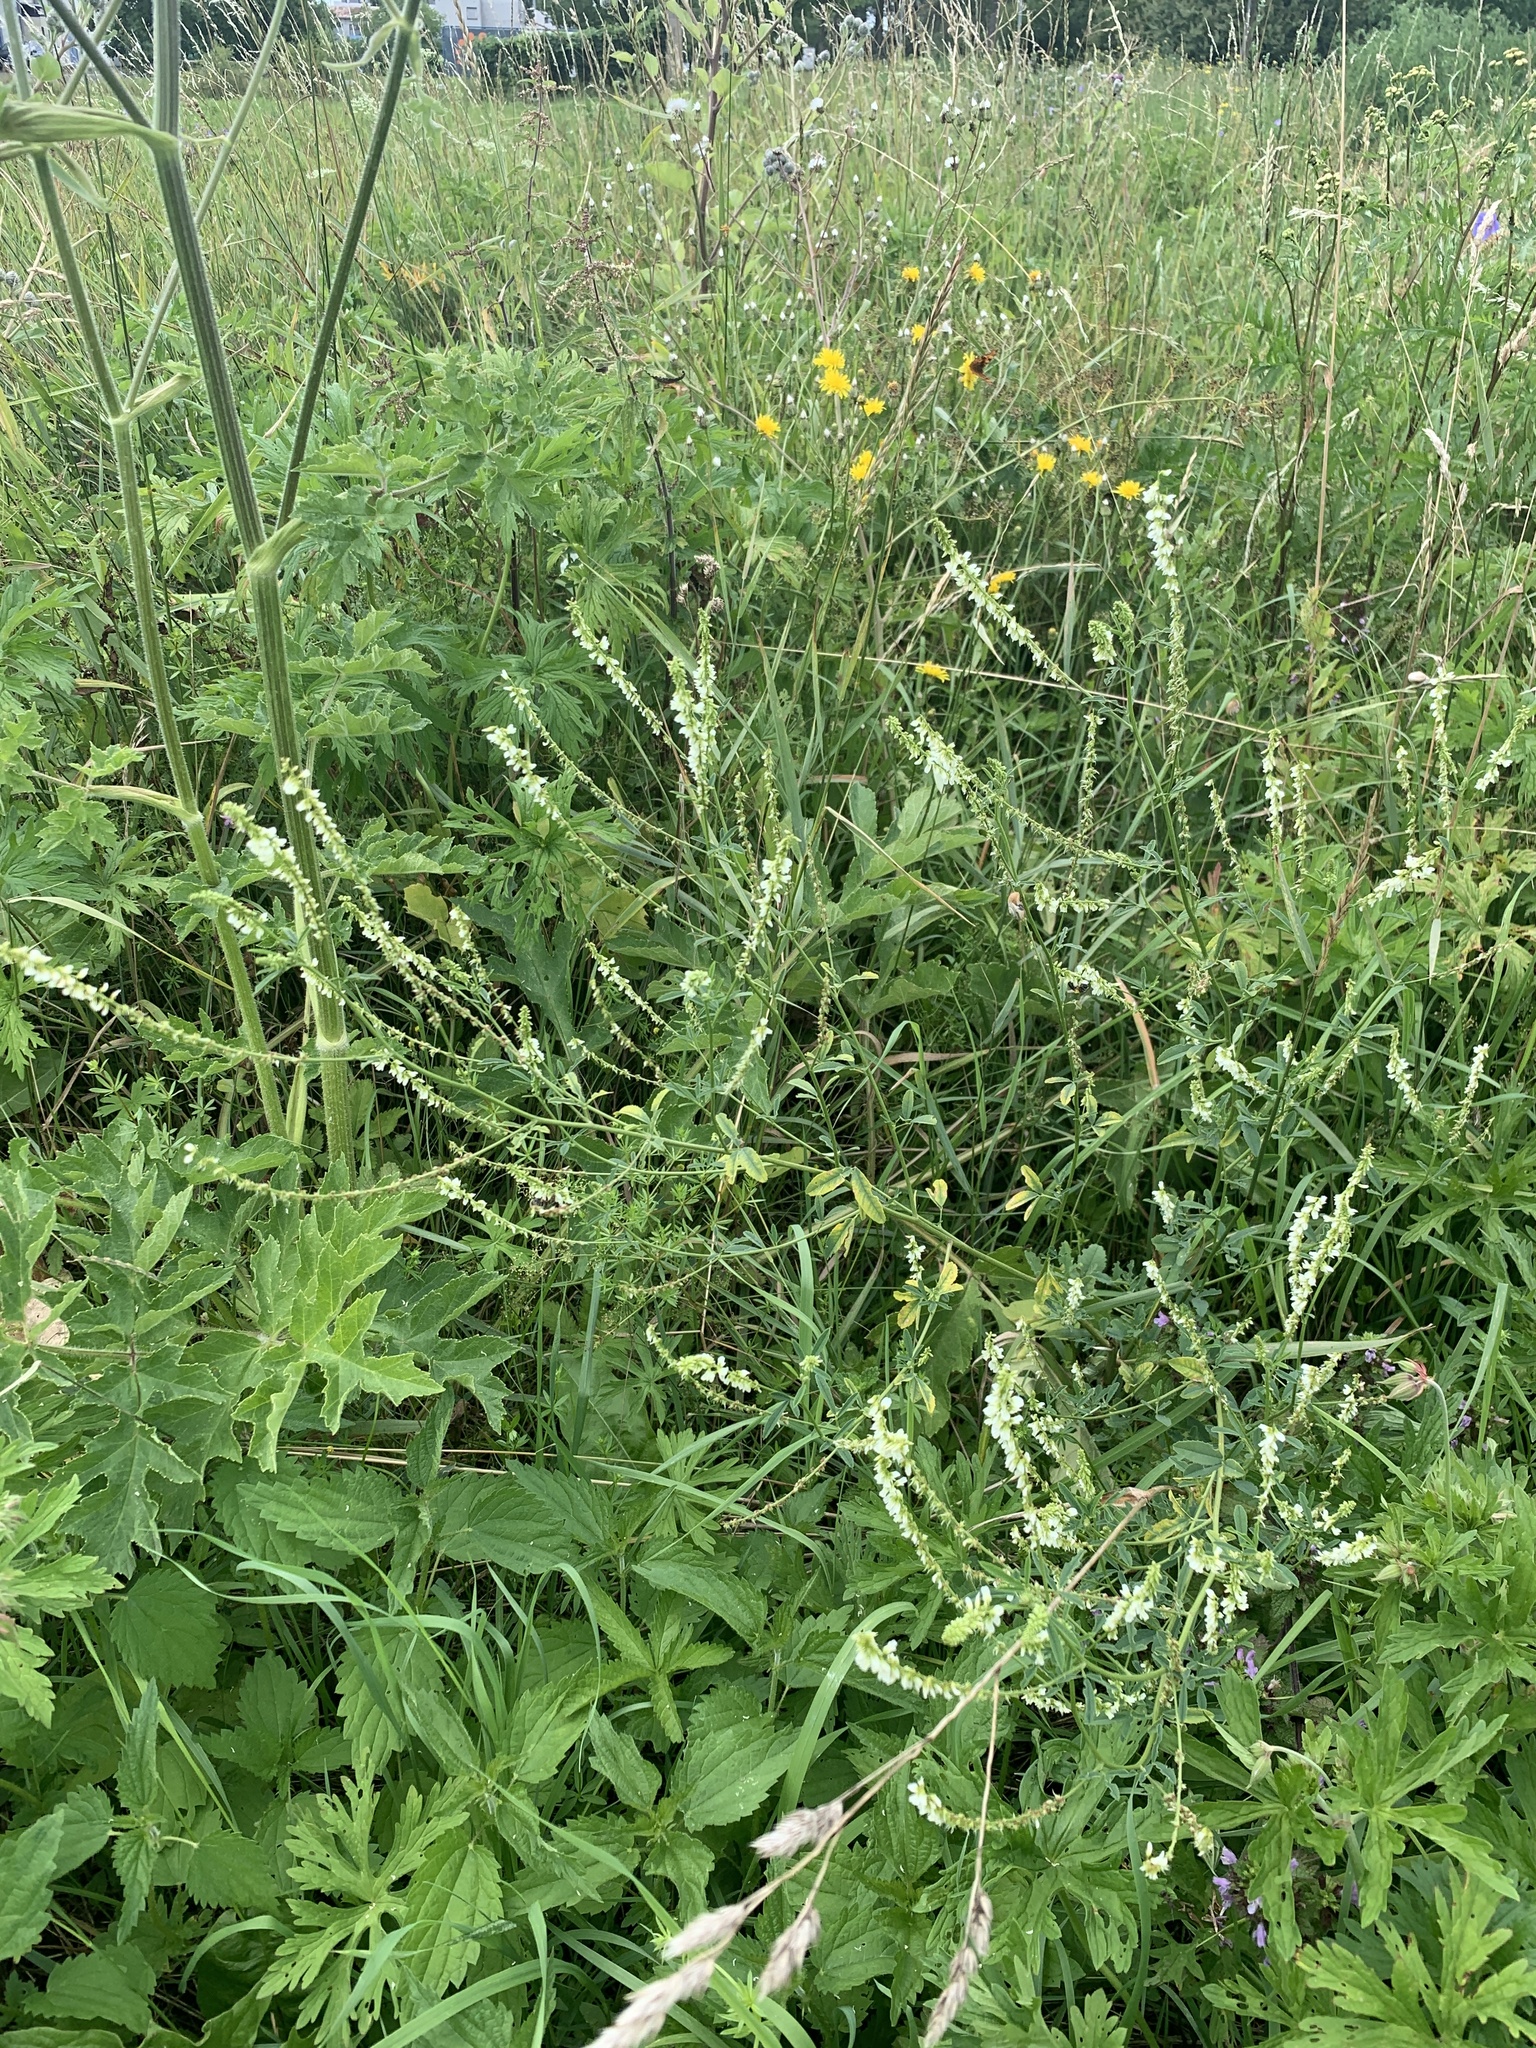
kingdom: Plantae
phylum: Tracheophyta
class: Magnoliopsida
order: Fabales
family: Fabaceae
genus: Melilotus
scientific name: Melilotus albus
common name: White melilot
